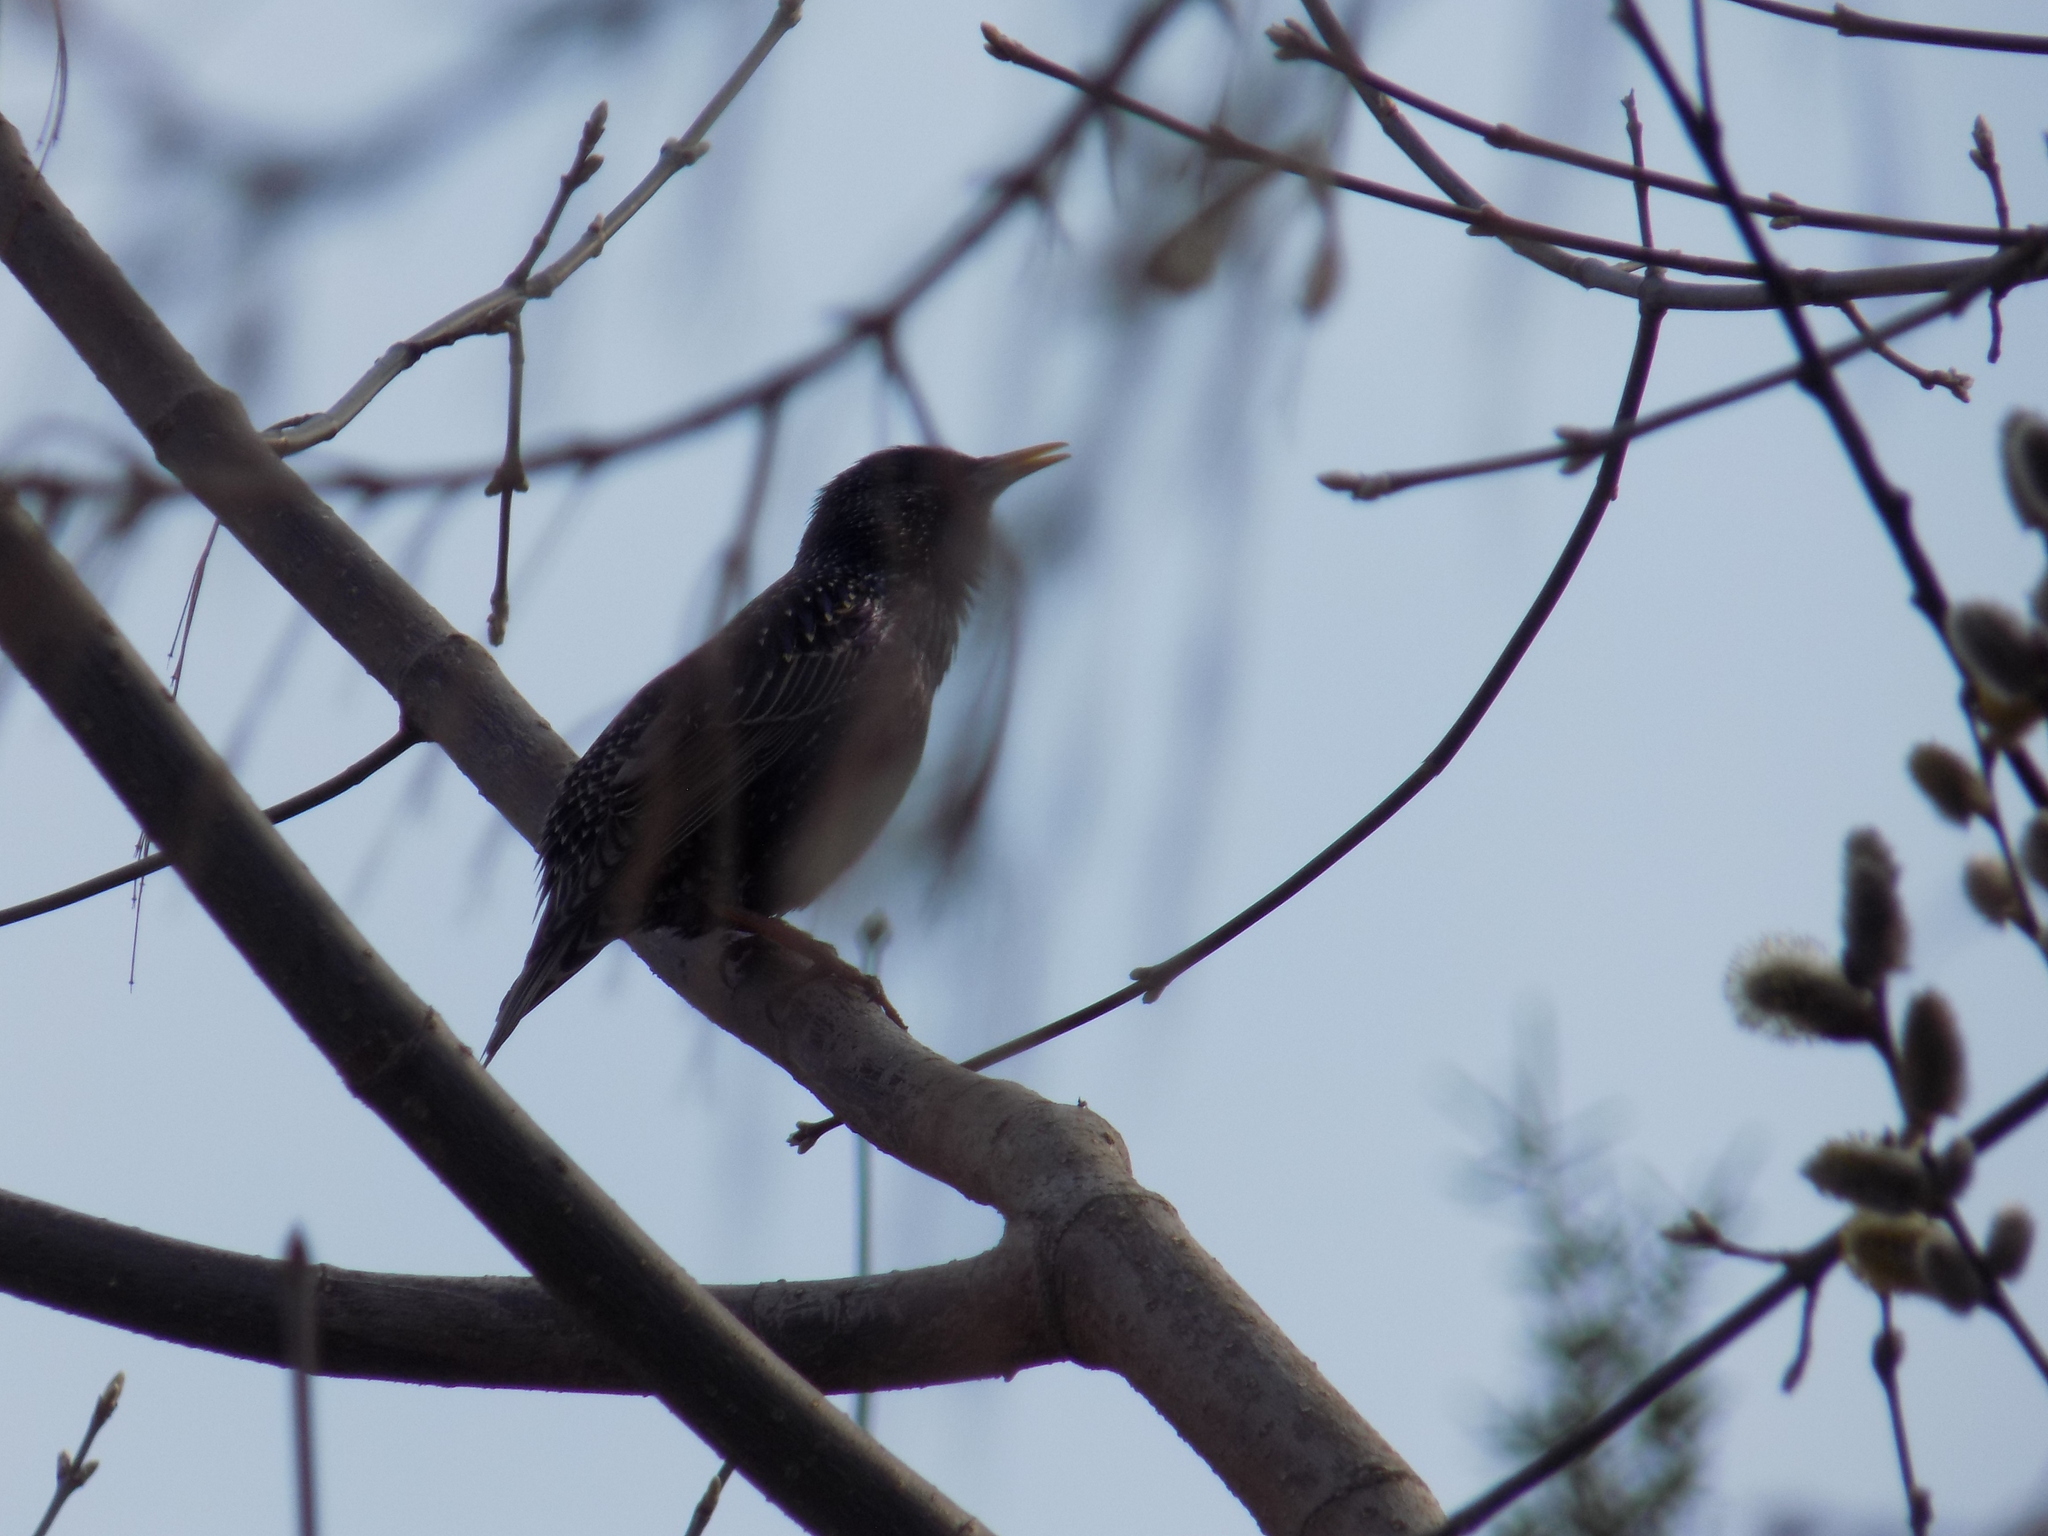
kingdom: Animalia
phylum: Chordata
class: Aves
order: Passeriformes
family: Sturnidae
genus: Sturnus
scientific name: Sturnus vulgaris
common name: Common starling
